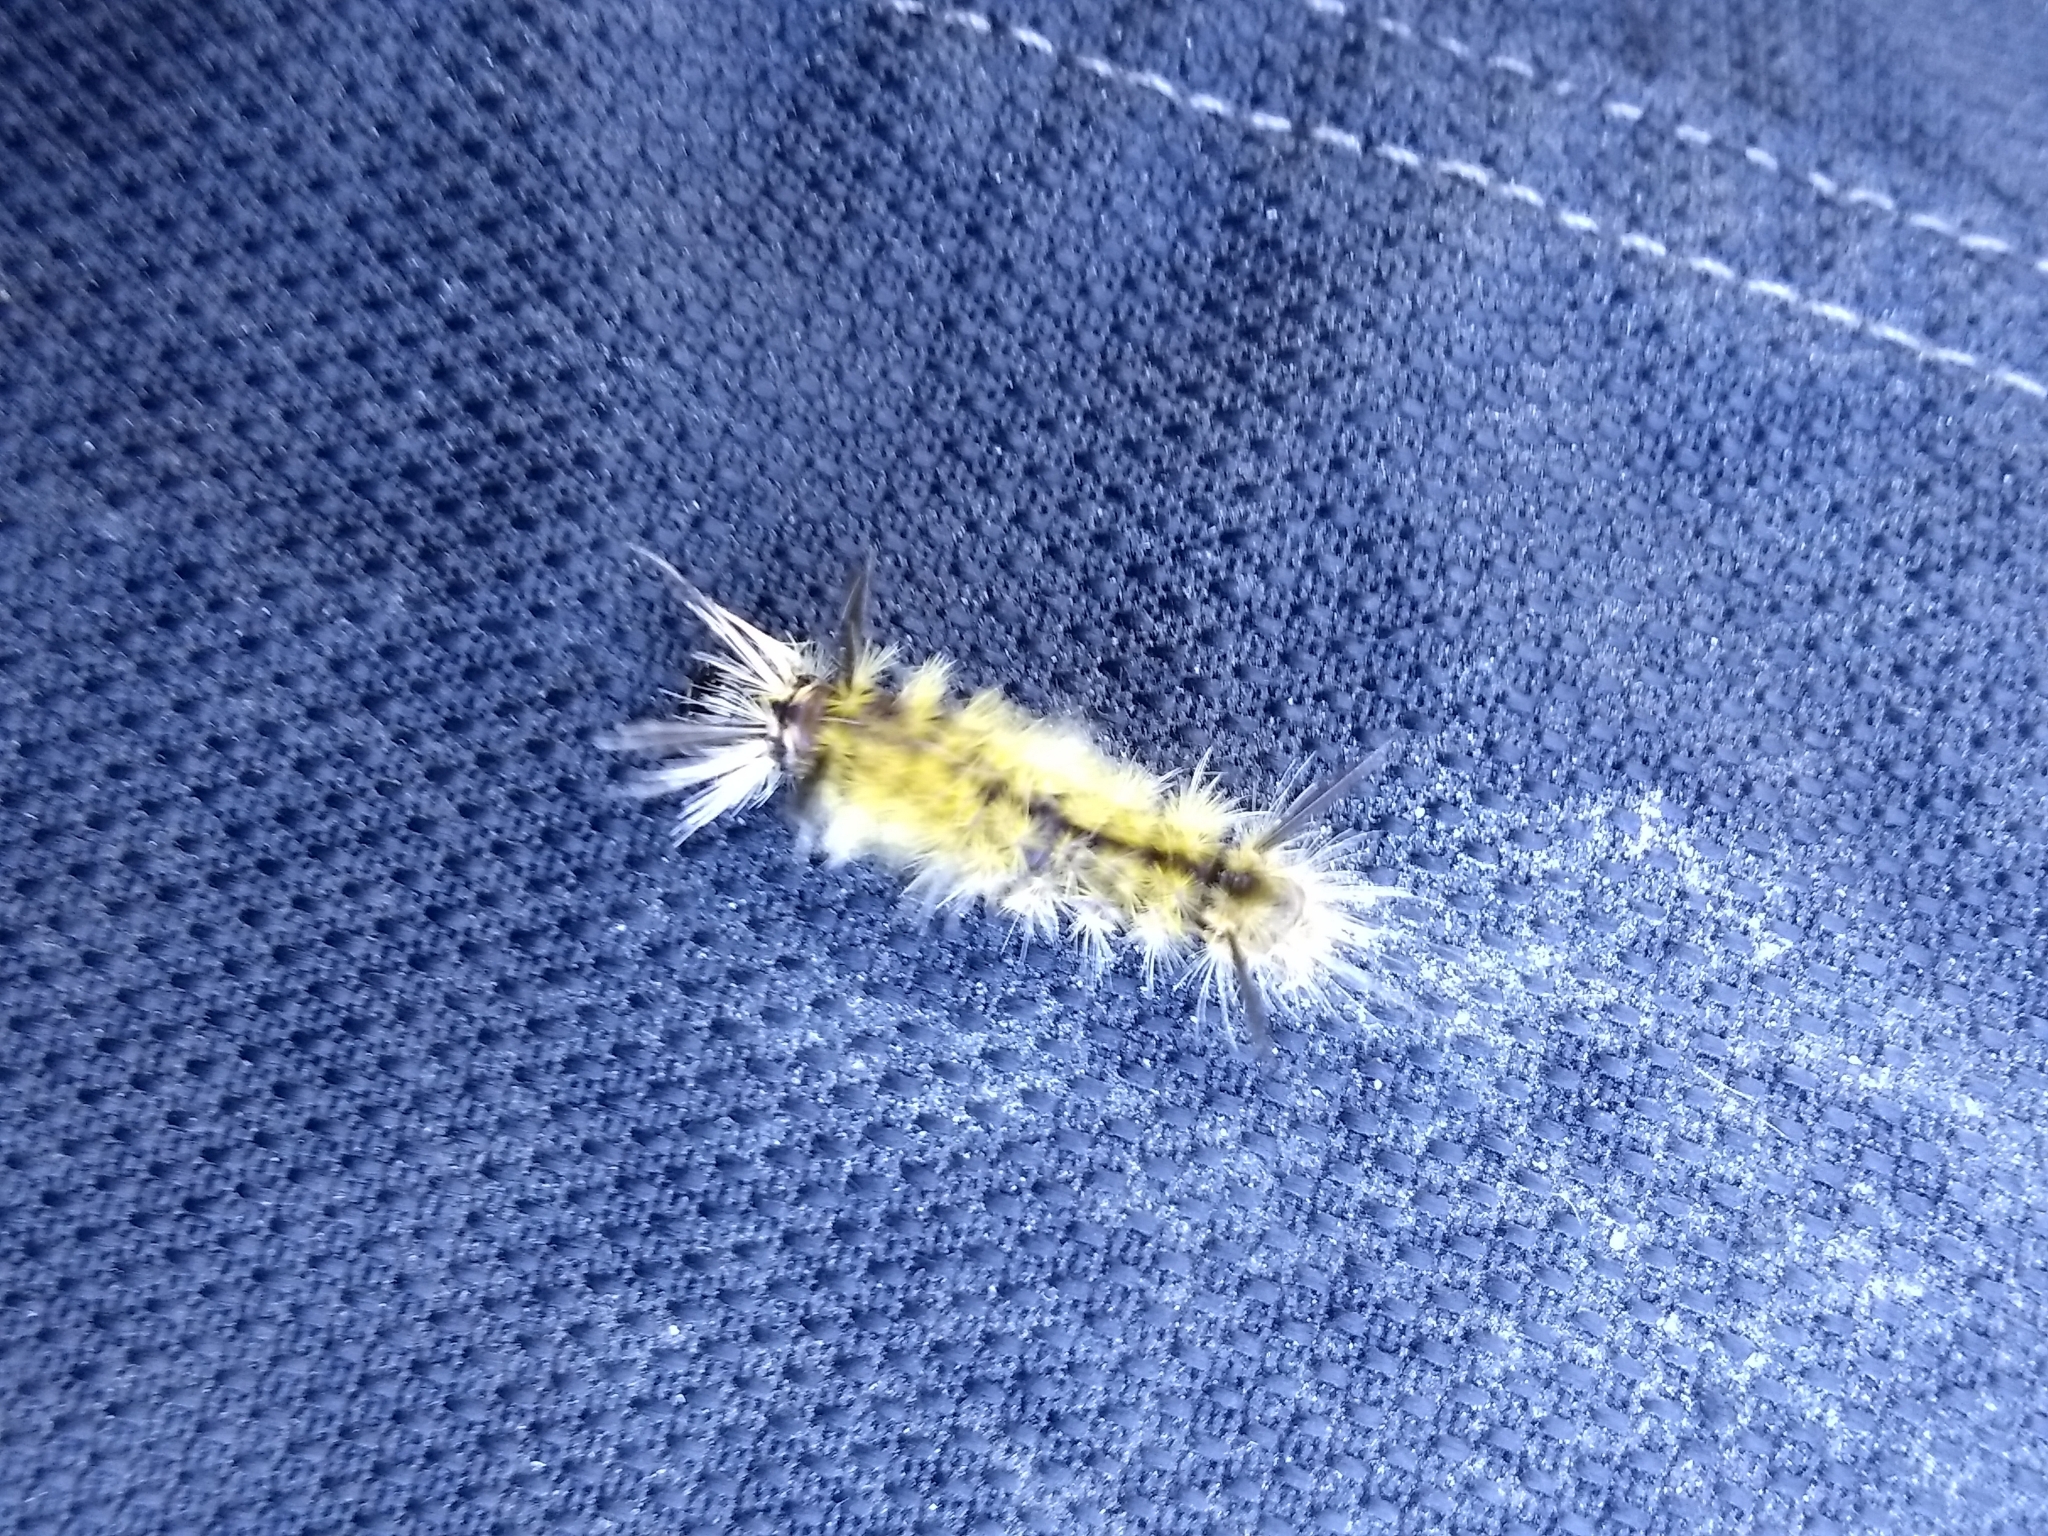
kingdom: Animalia
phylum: Arthropoda
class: Insecta
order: Lepidoptera
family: Erebidae
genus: Halysidota
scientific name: Halysidota tessellaris
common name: Banded tussock moth
